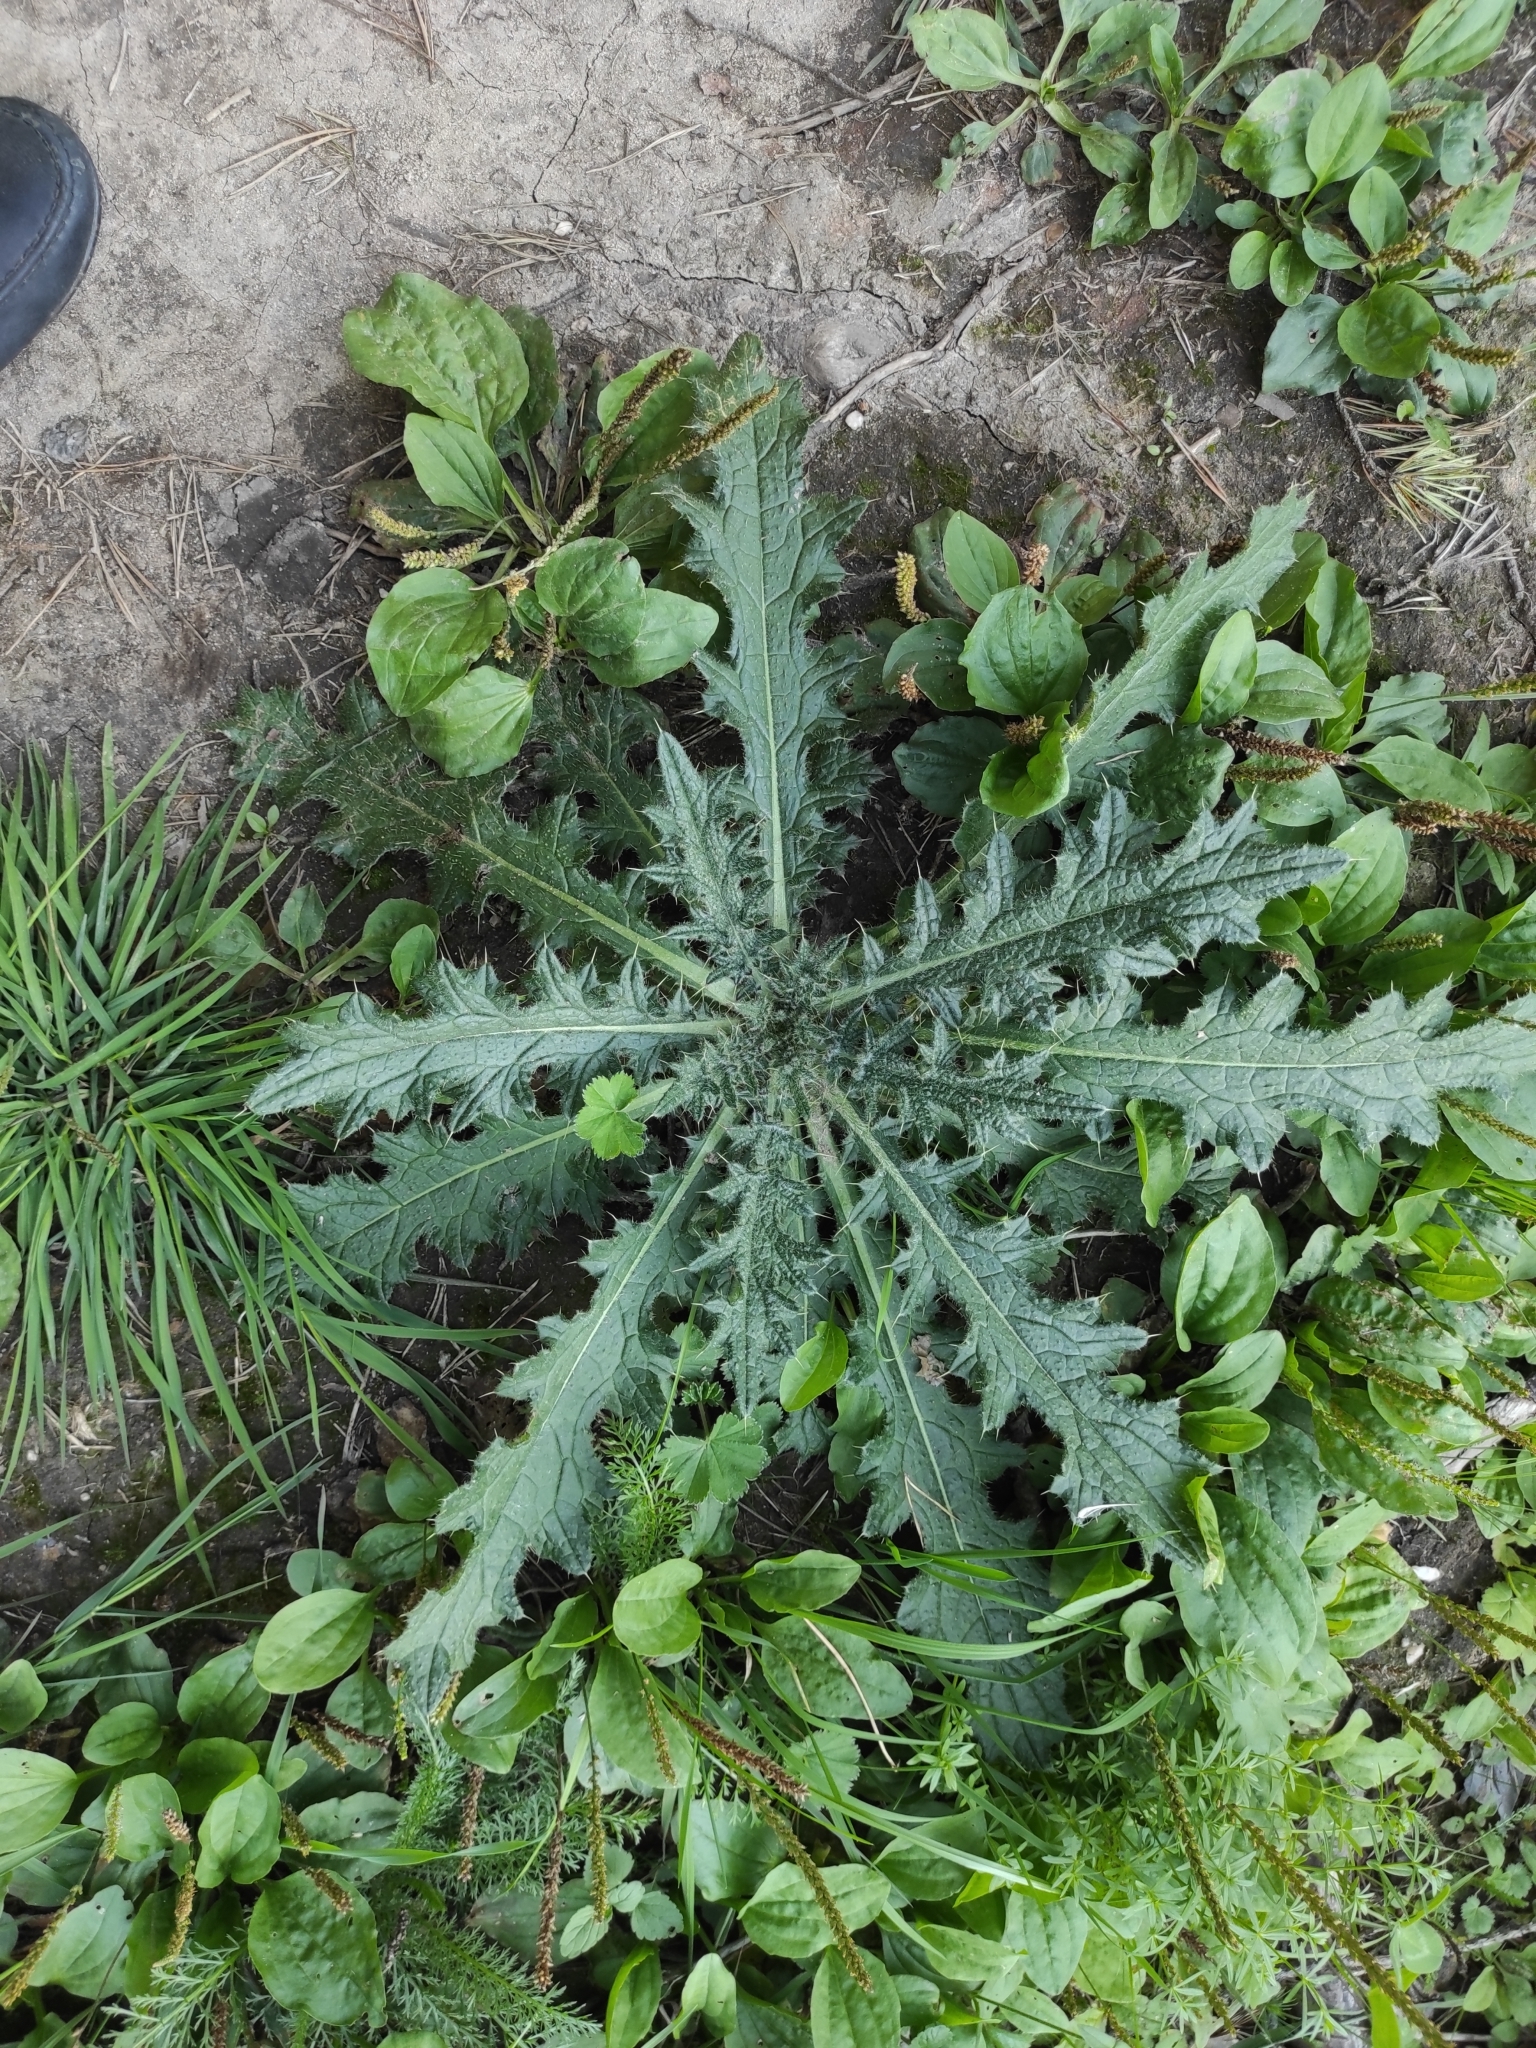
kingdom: Plantae
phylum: Tracheophyta
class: Magnoliopsida
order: Asterales
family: Asteraceae
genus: Cirsium
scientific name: Cirsium vulgare
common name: Bull thistle
